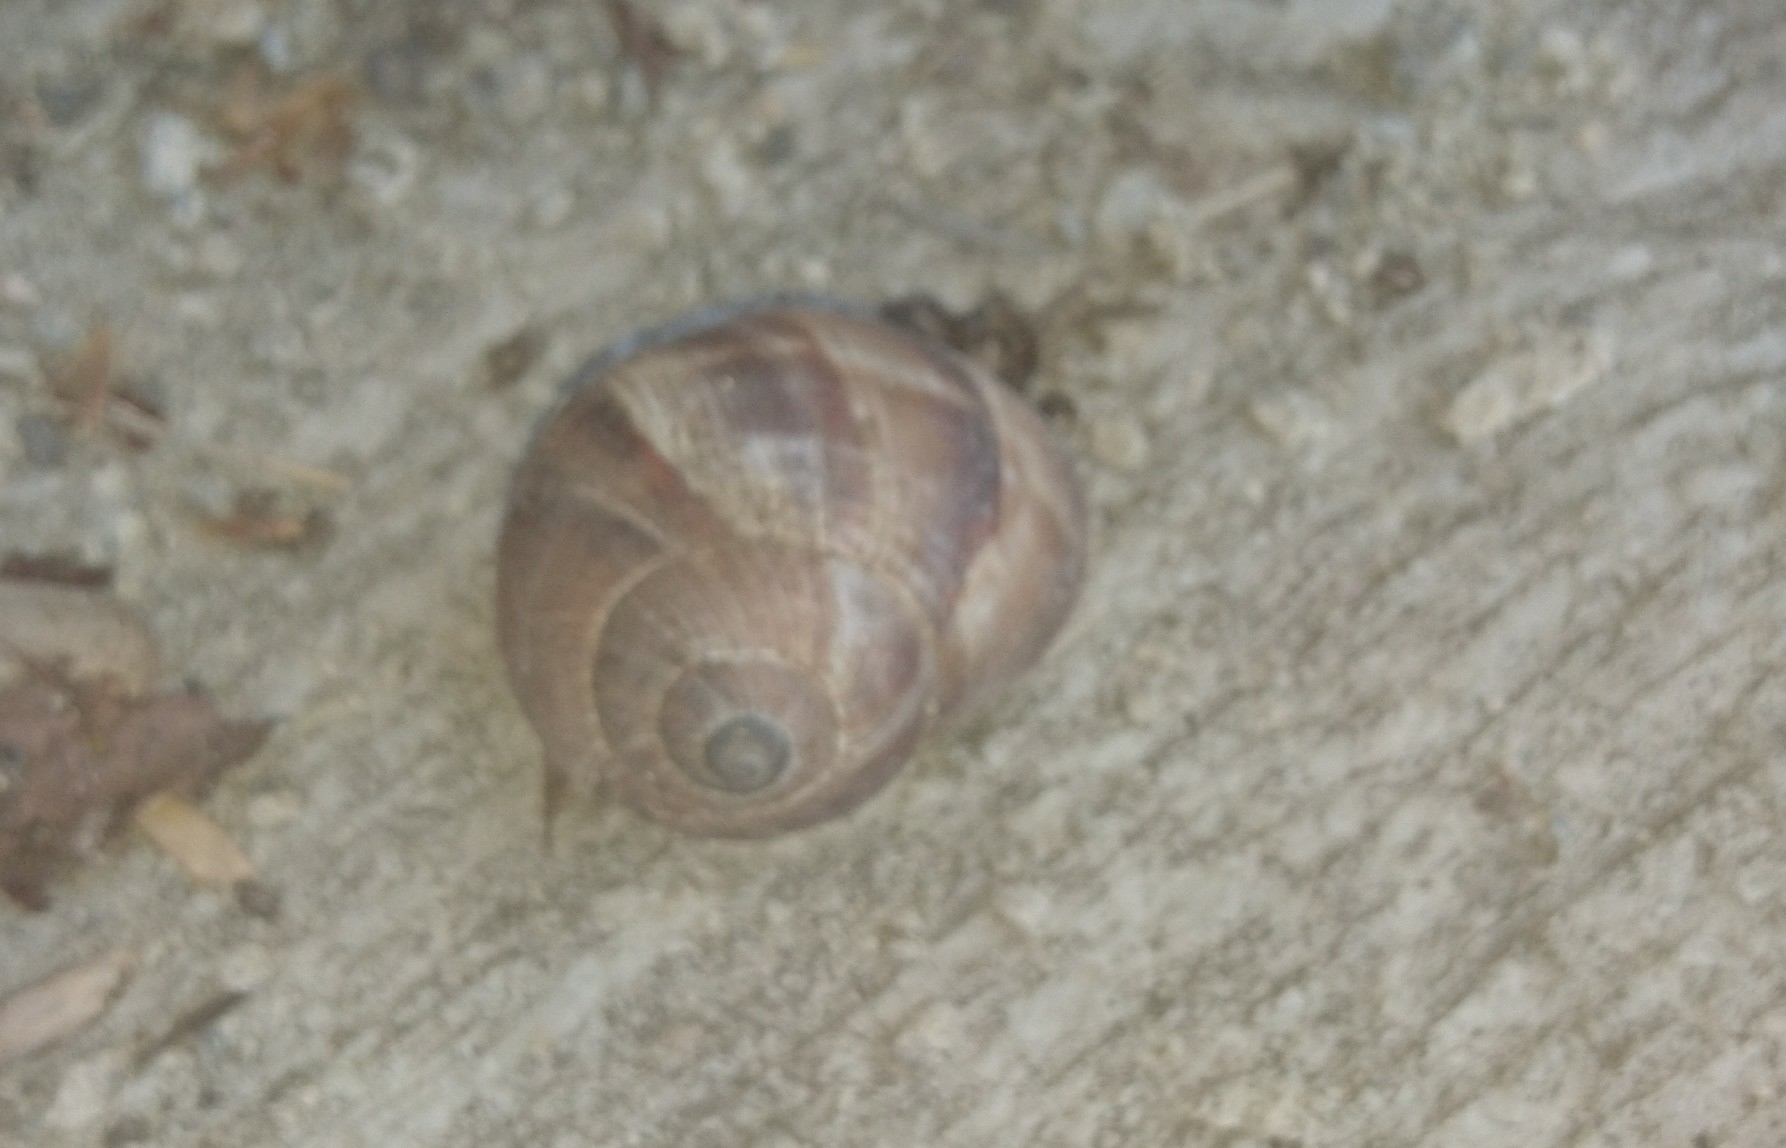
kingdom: Animalia
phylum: Mollusca
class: Gastropoda
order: Stylommatophora
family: Helicidae
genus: Helix
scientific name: Helix lucorum
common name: Turkish snail
